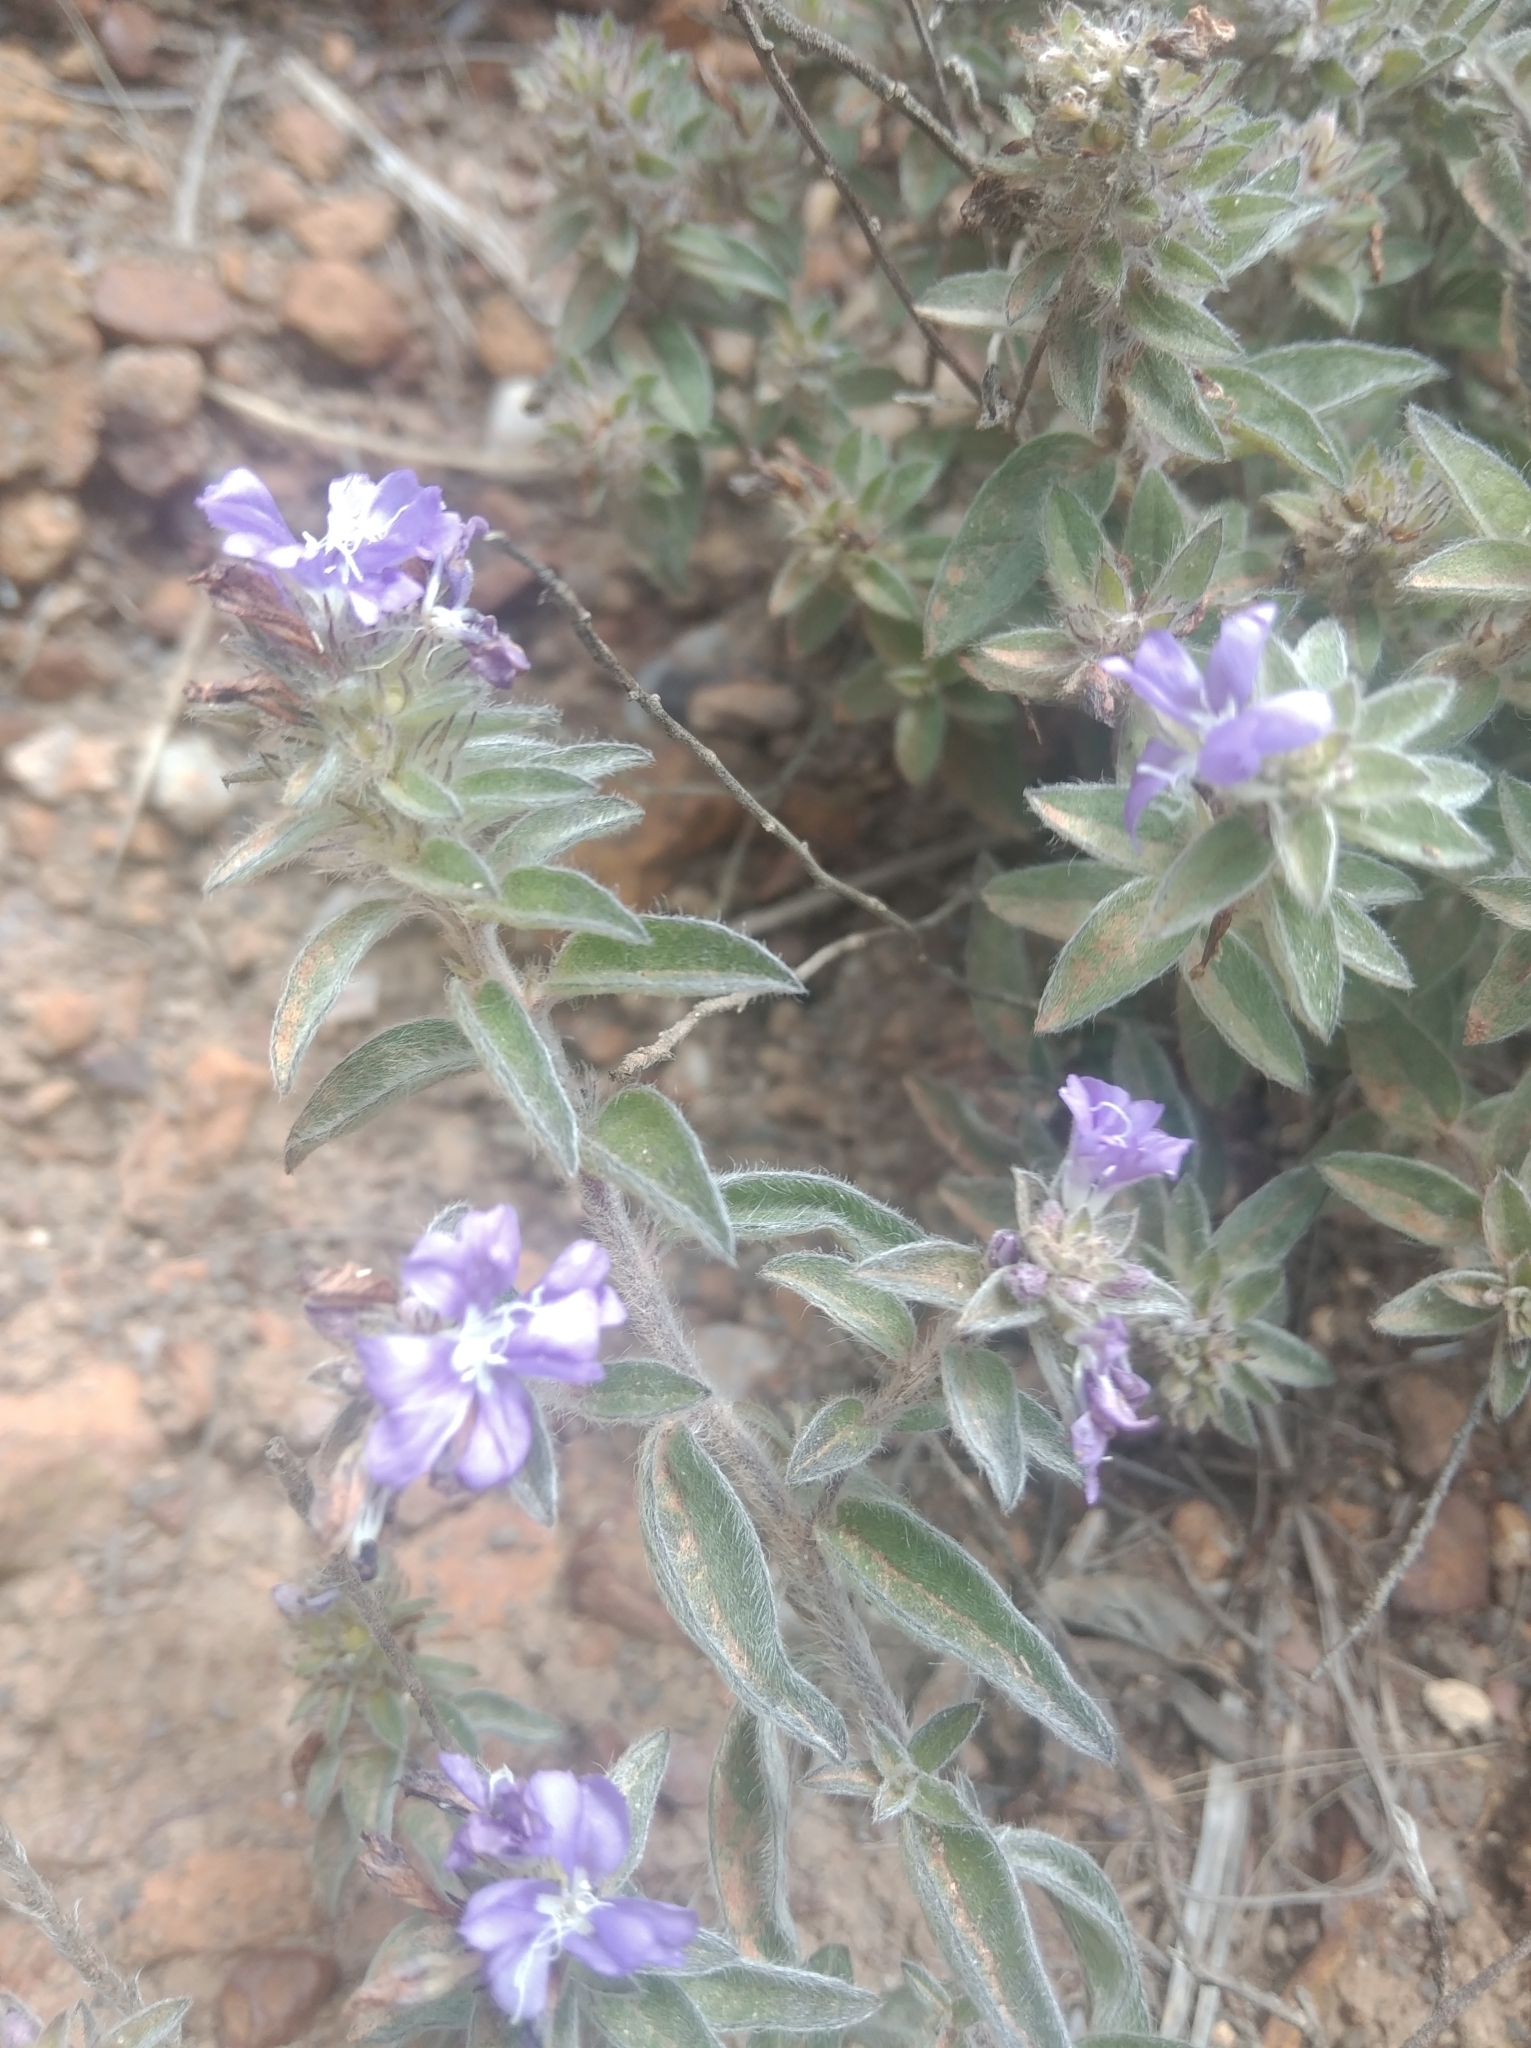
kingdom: Plantae
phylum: Tracheophyta
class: Magnoliopsida
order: Solanales
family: Convolvulaceae
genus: Evolvulus
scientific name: Evolvulus glomeratus
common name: Brazilian dwarf morning-glory
